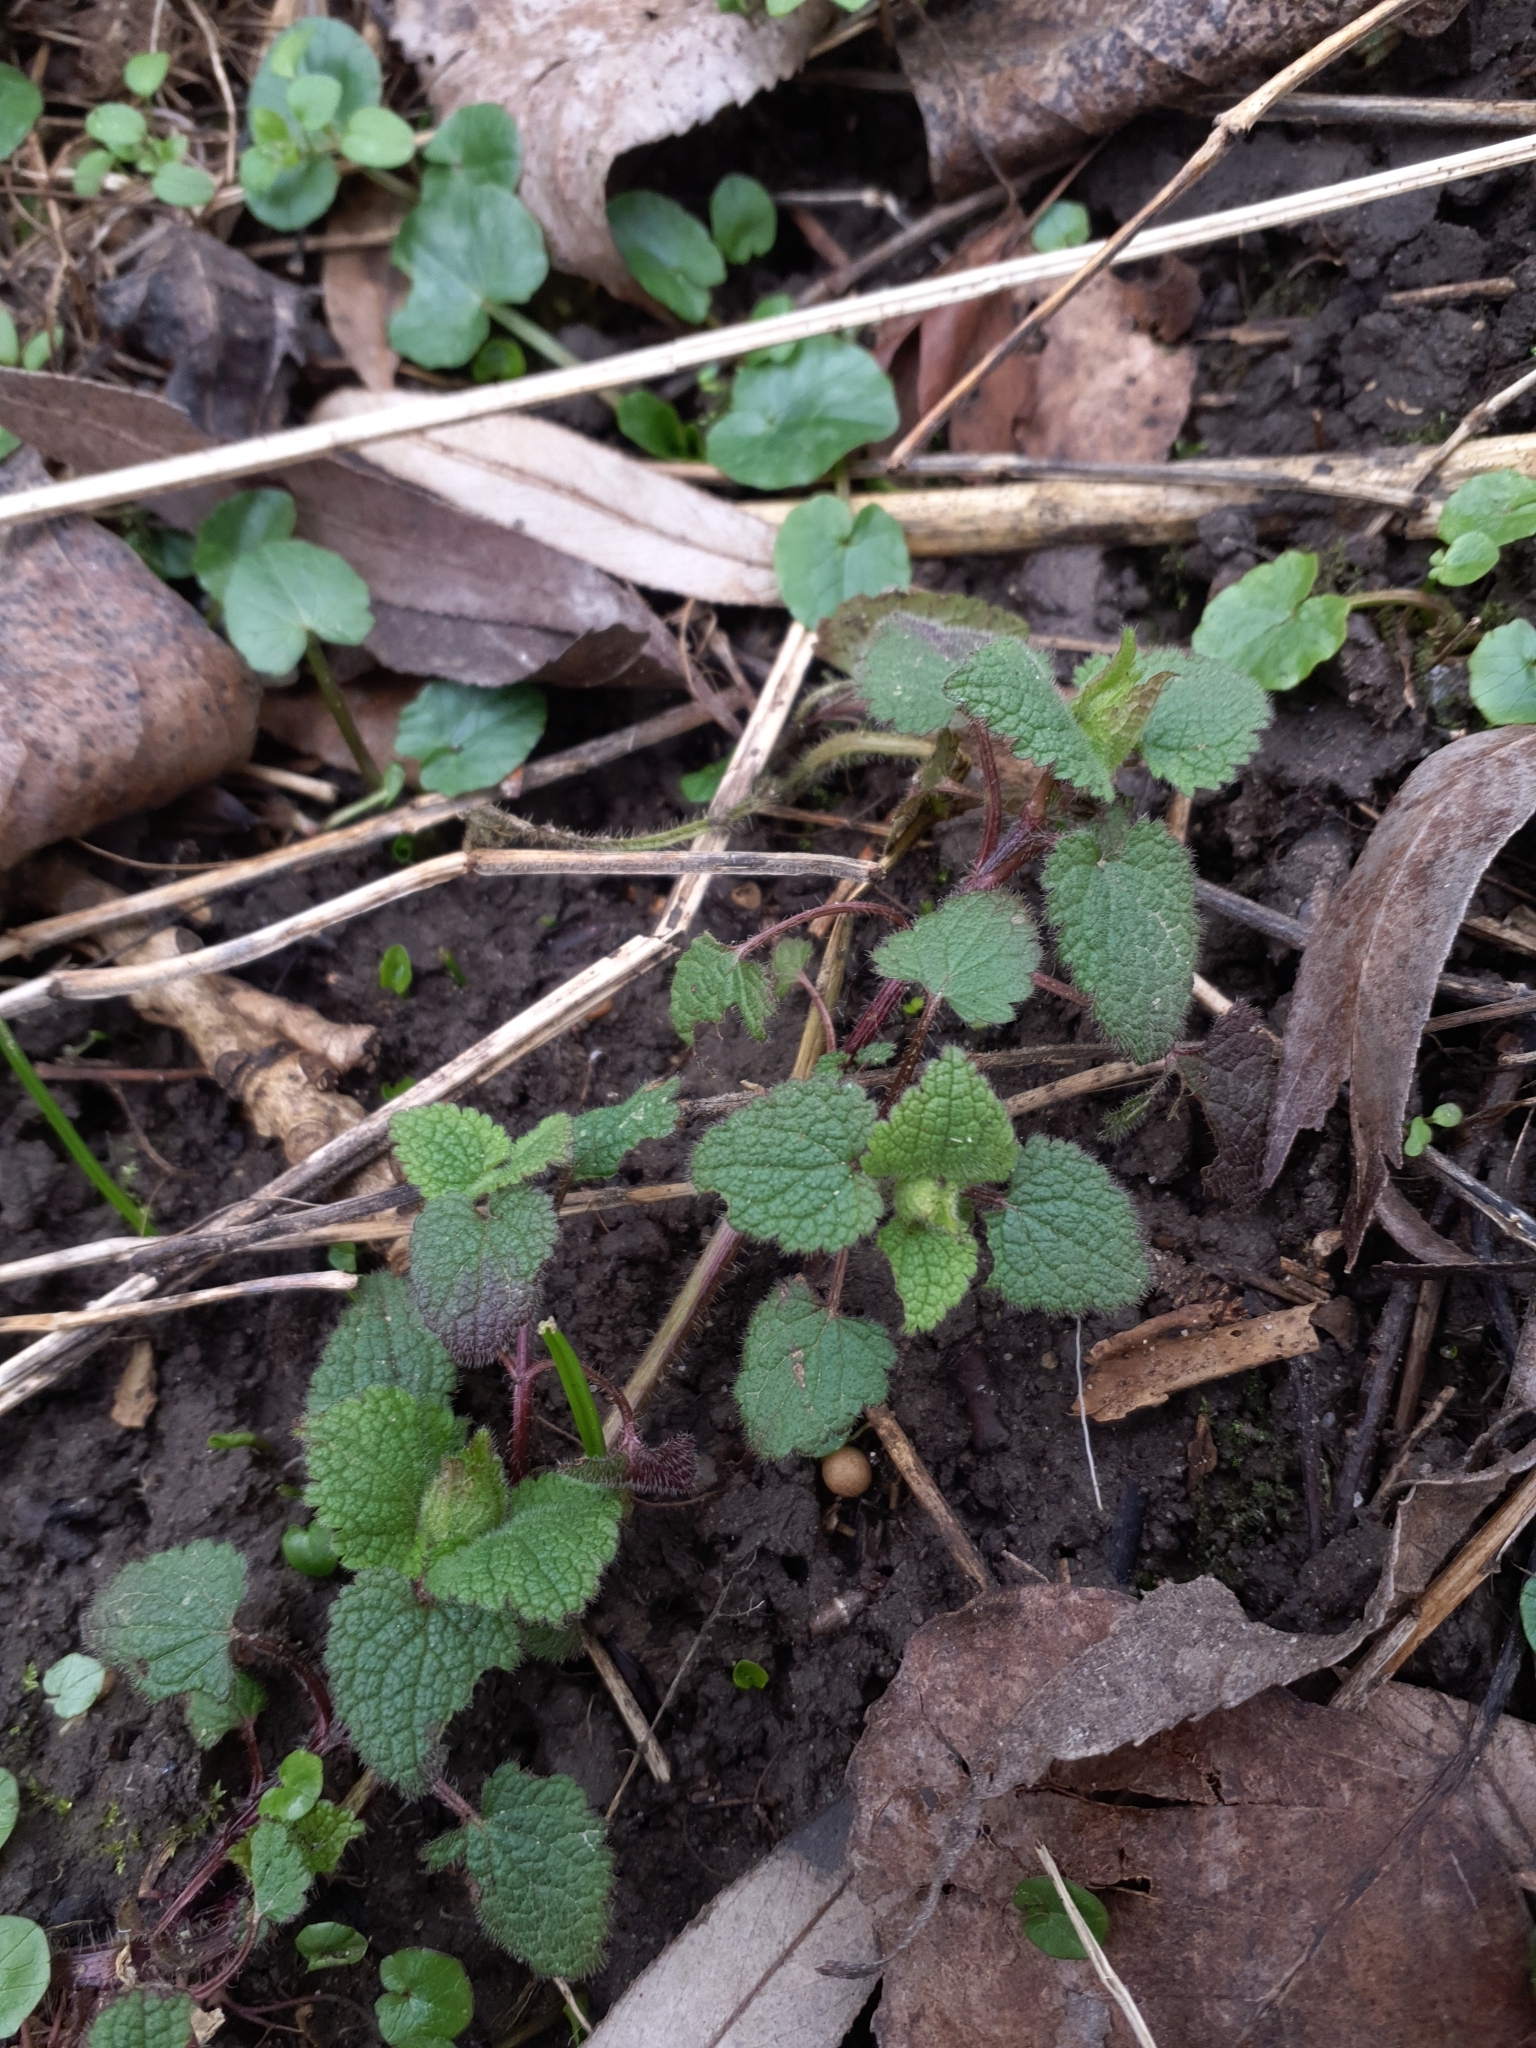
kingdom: Plantae
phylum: Tracheophyta
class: Magnoliopsida
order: Lamiales
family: Lamiaceae
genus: Lamium
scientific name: Lamium maculatum
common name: Spotted dead-nettle
